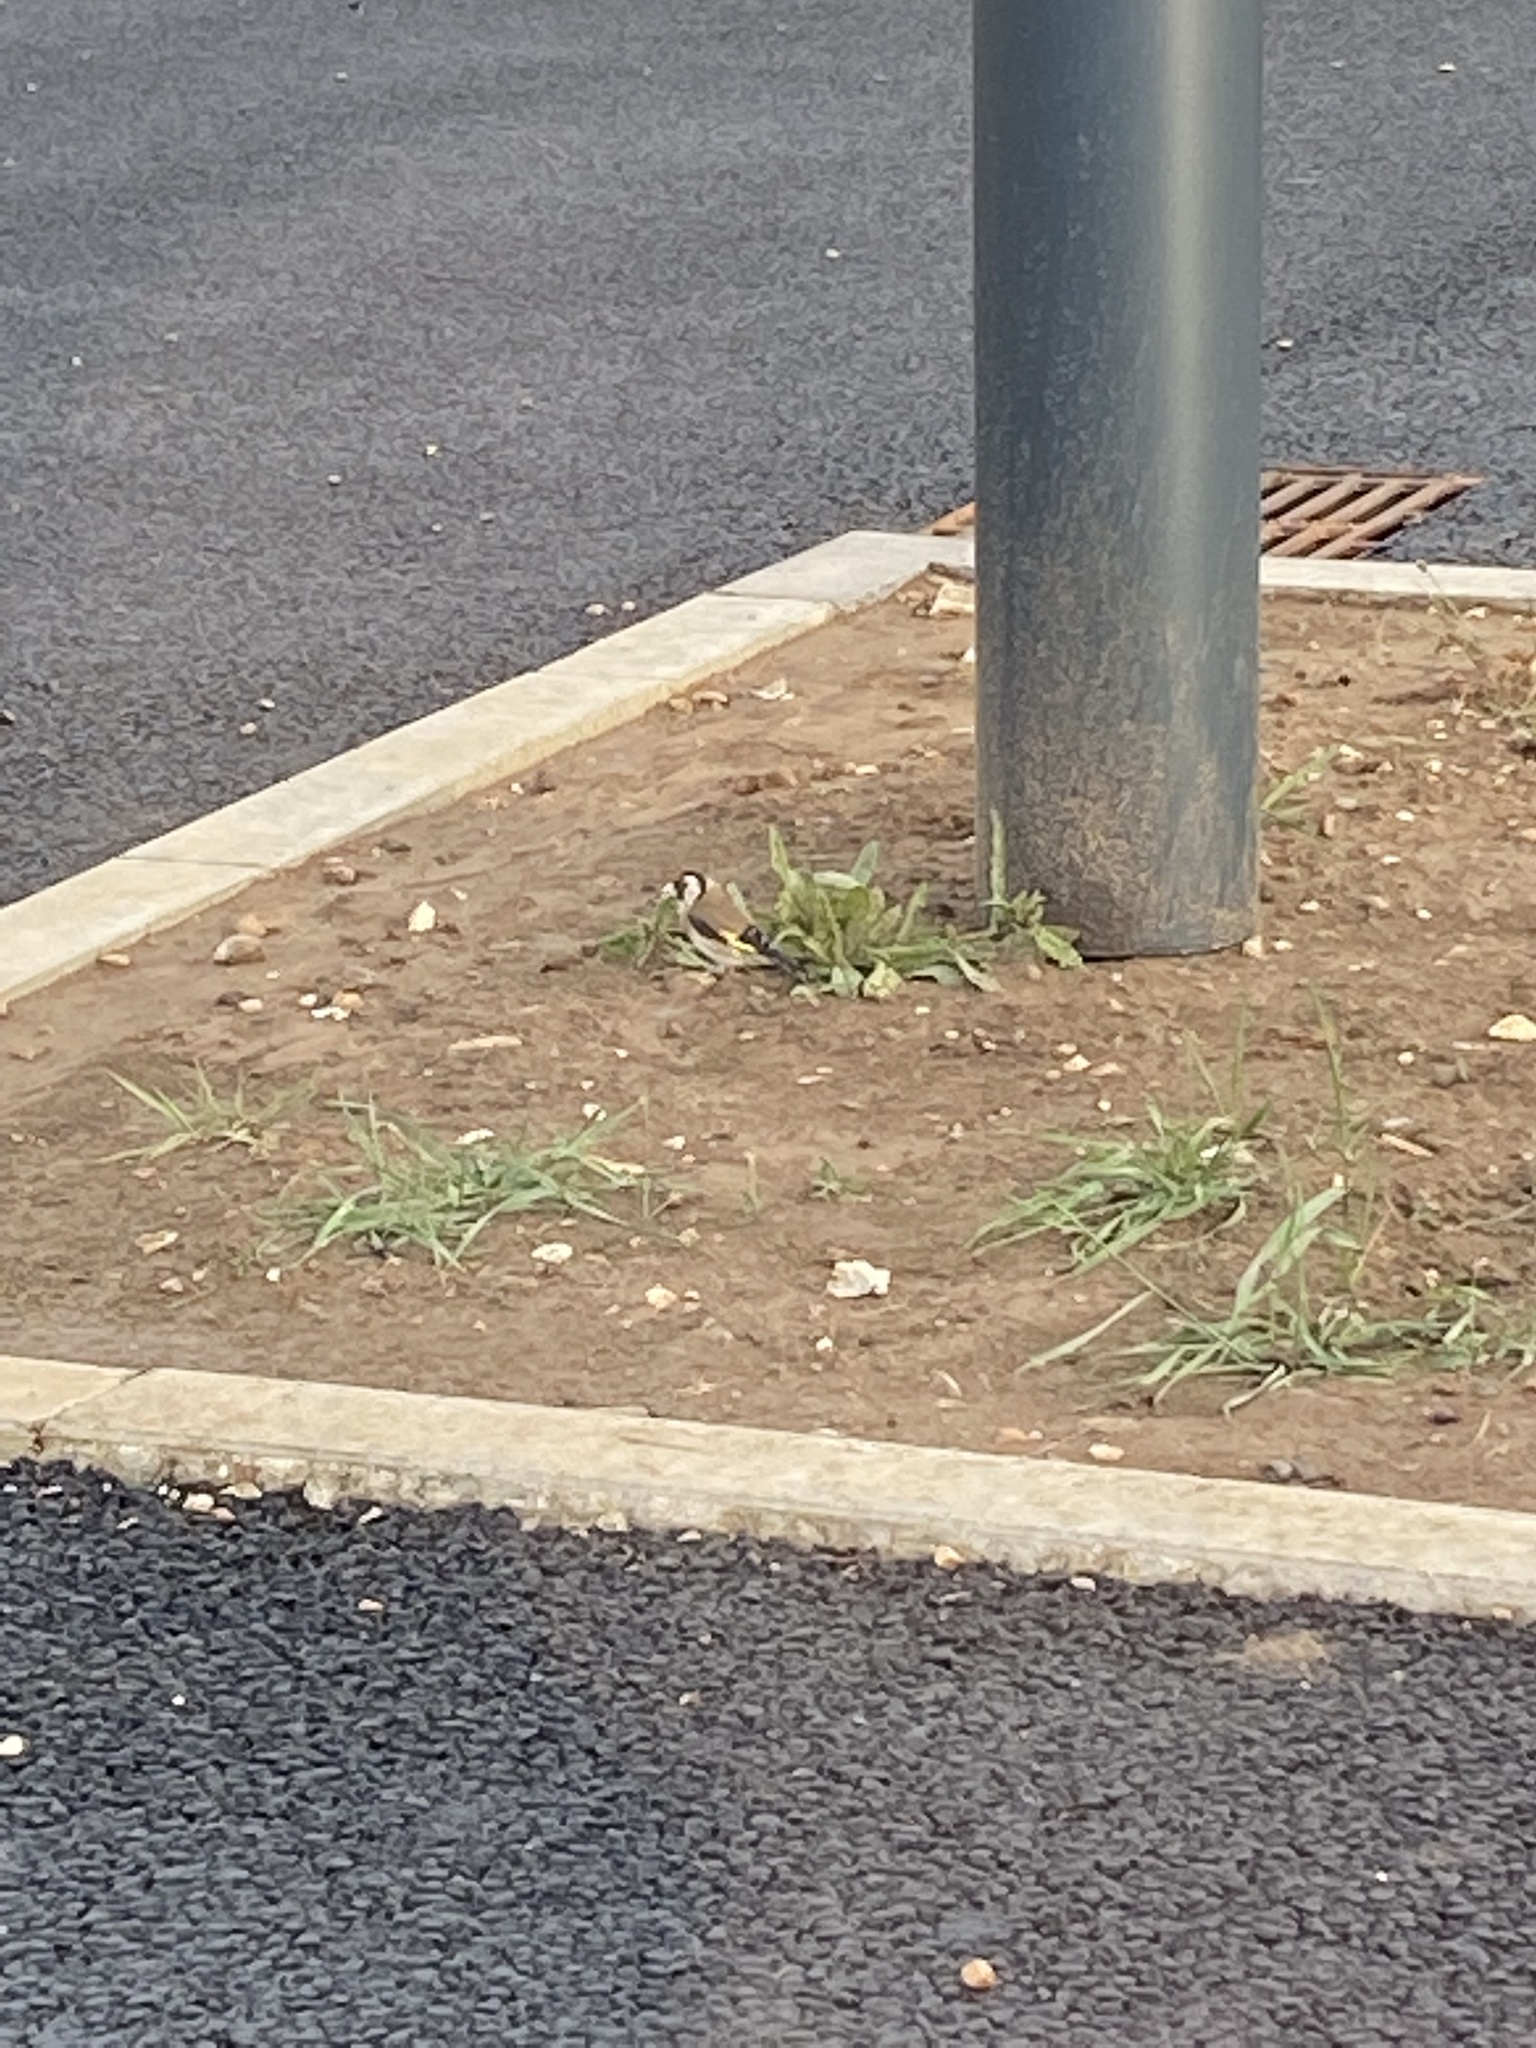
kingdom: Animalia
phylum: Chordata
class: Aves
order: Passeriformes
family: Fringillidae
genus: Carduelis
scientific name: Carduelis carduelis
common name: European goldfinch
